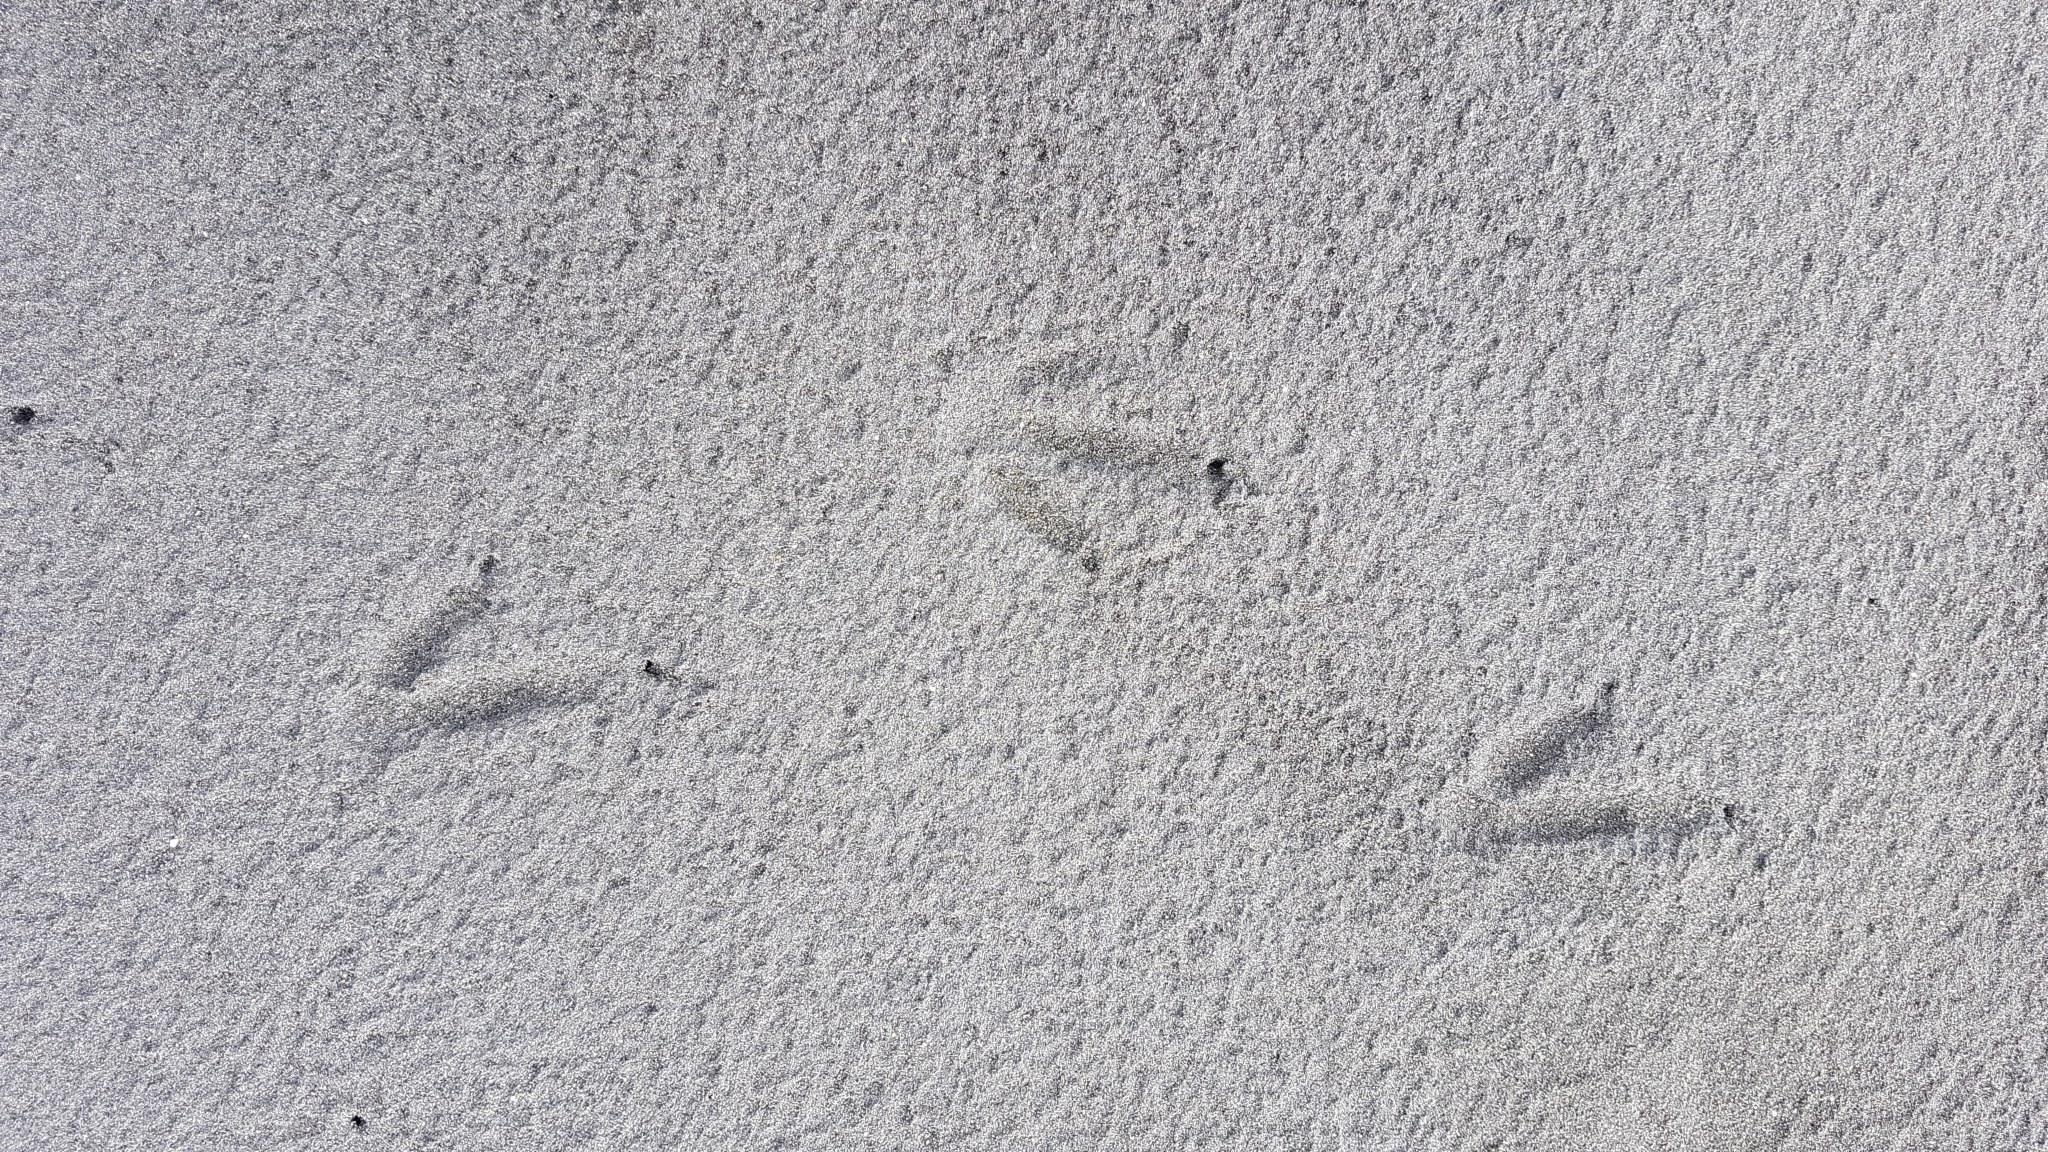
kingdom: Animalia
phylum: Chordata
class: Aves
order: Sphenisciformes
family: Spheniscidae
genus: Eudyptula
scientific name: Eudyptula minor
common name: Little penguin
